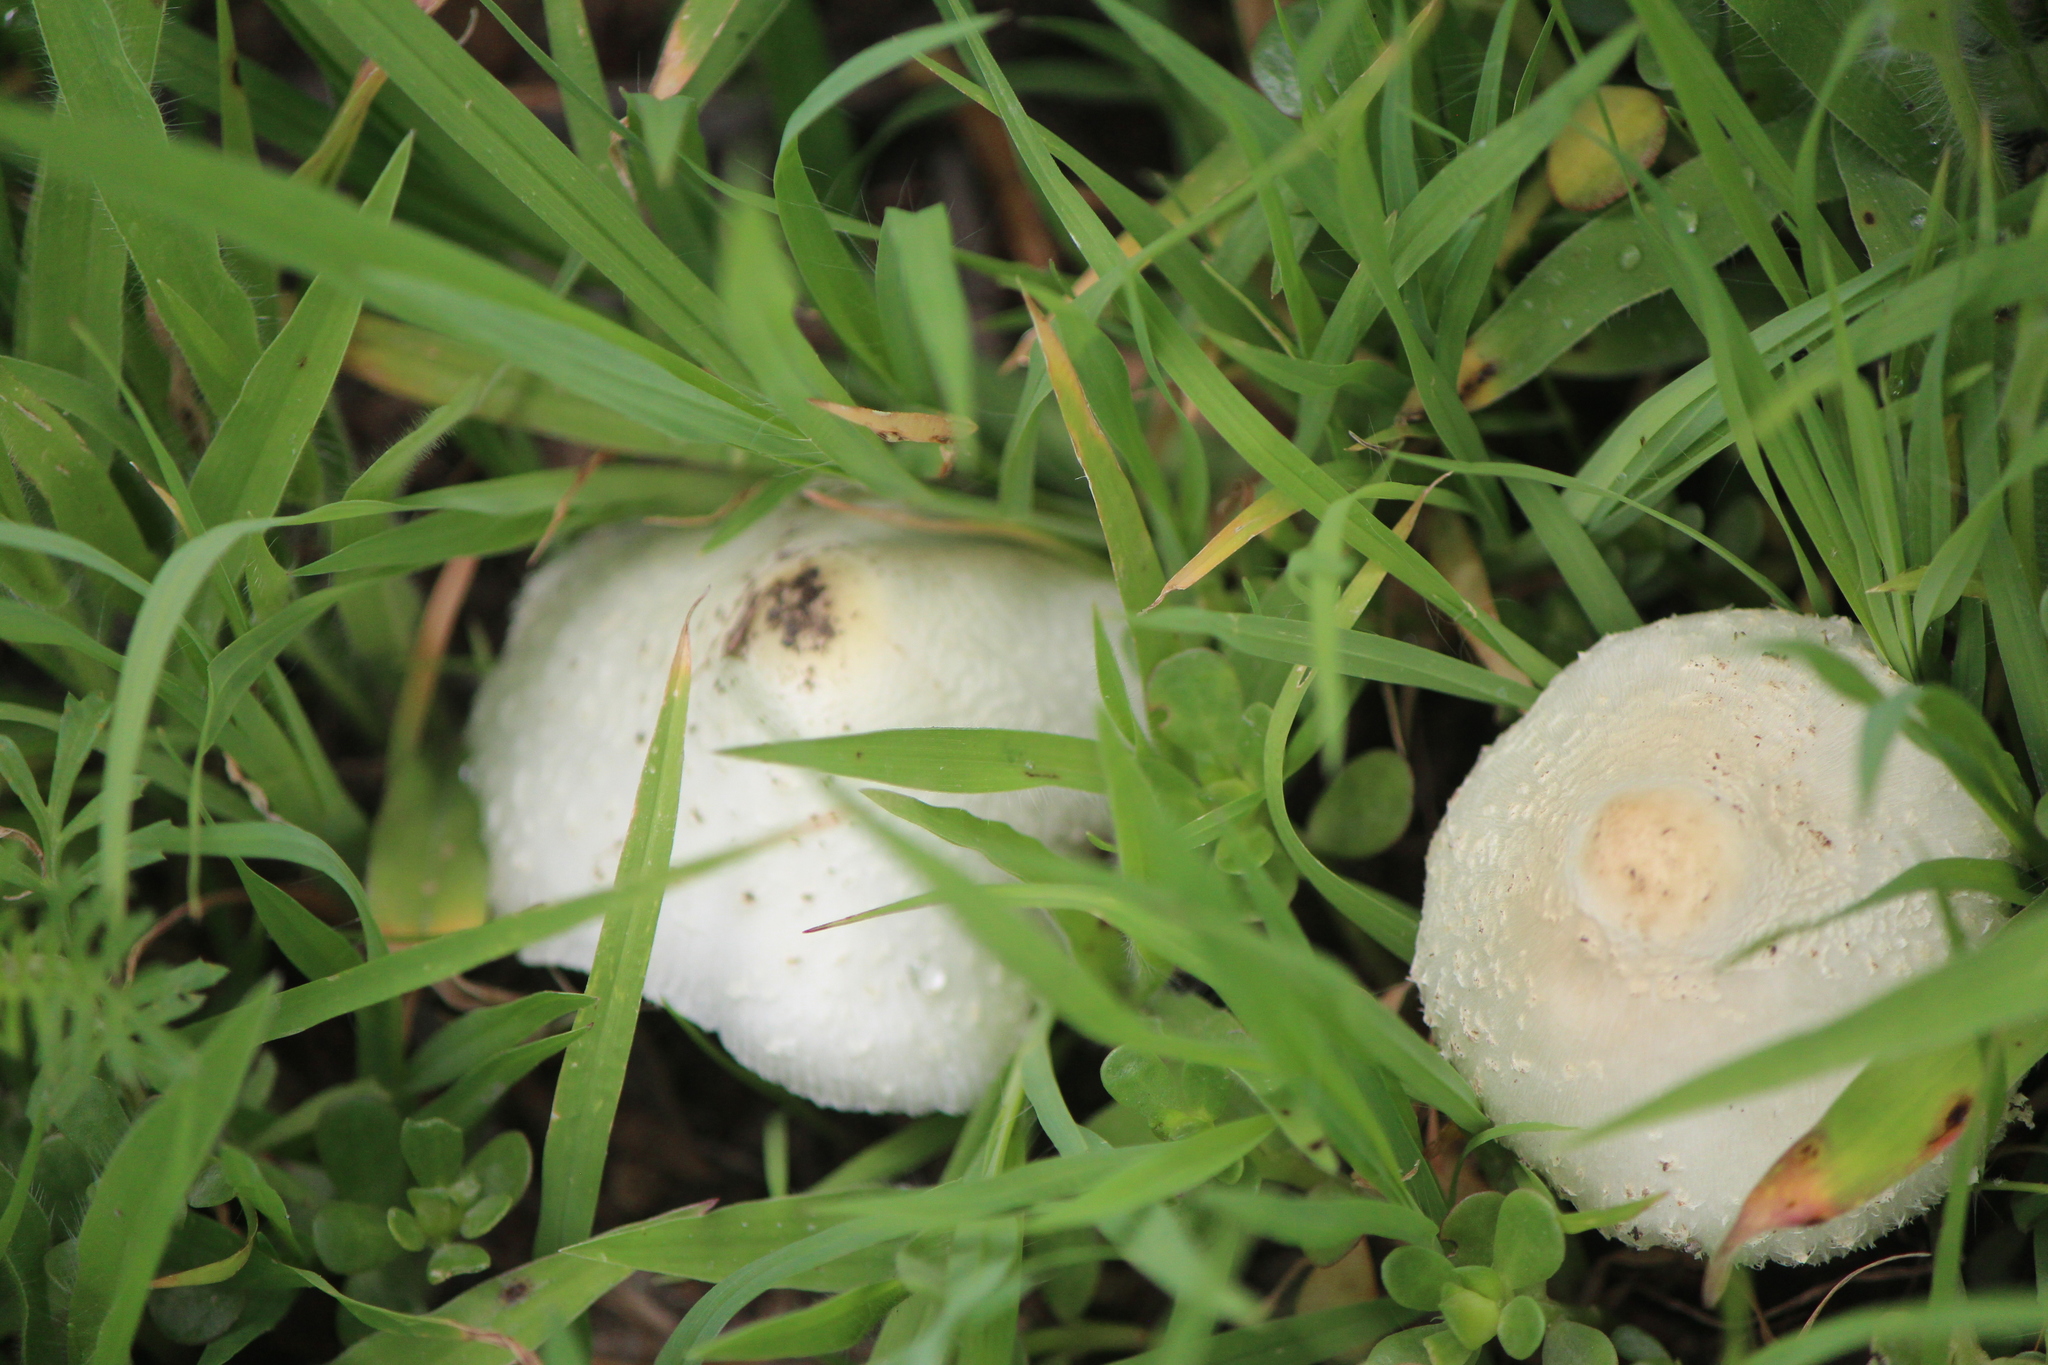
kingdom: Fungi
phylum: Basidiomycota
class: Agaricomycetes
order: Agaricales
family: Agaricaceae
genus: Chlorophyllum
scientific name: Chlorophyllum hortense
